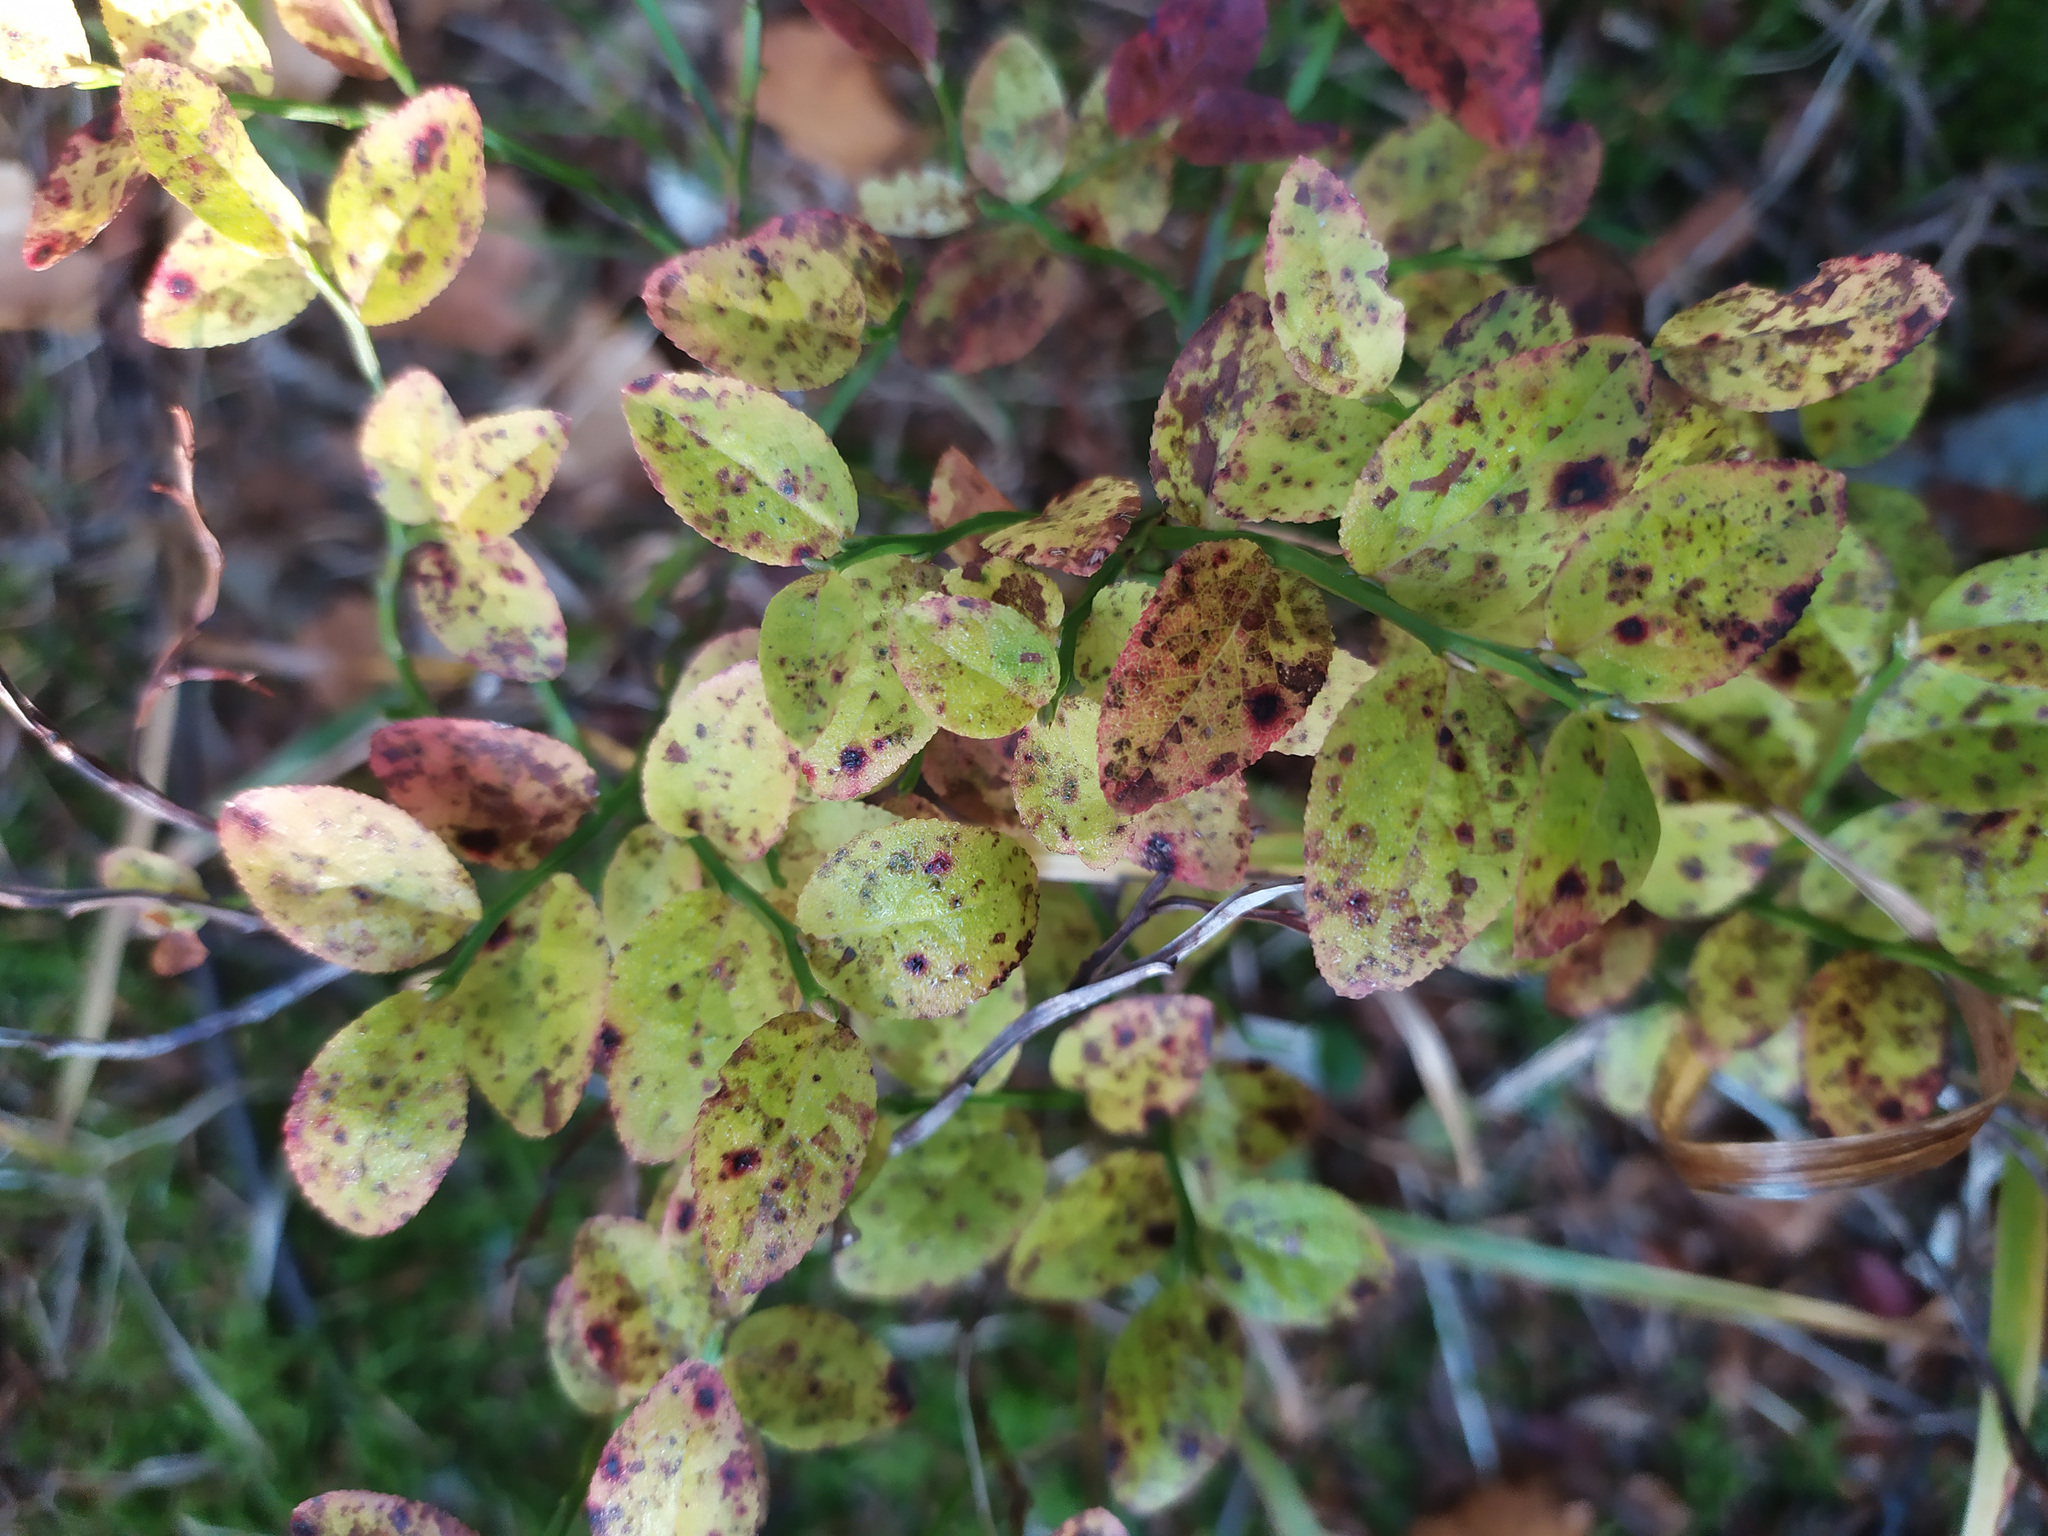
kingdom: Plantae
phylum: Tracheophyta
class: Magnoliopsida
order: Ericales
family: Ericaceae
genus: Vaccinium
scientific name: Vaccinium myrtillus
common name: Bilberry
